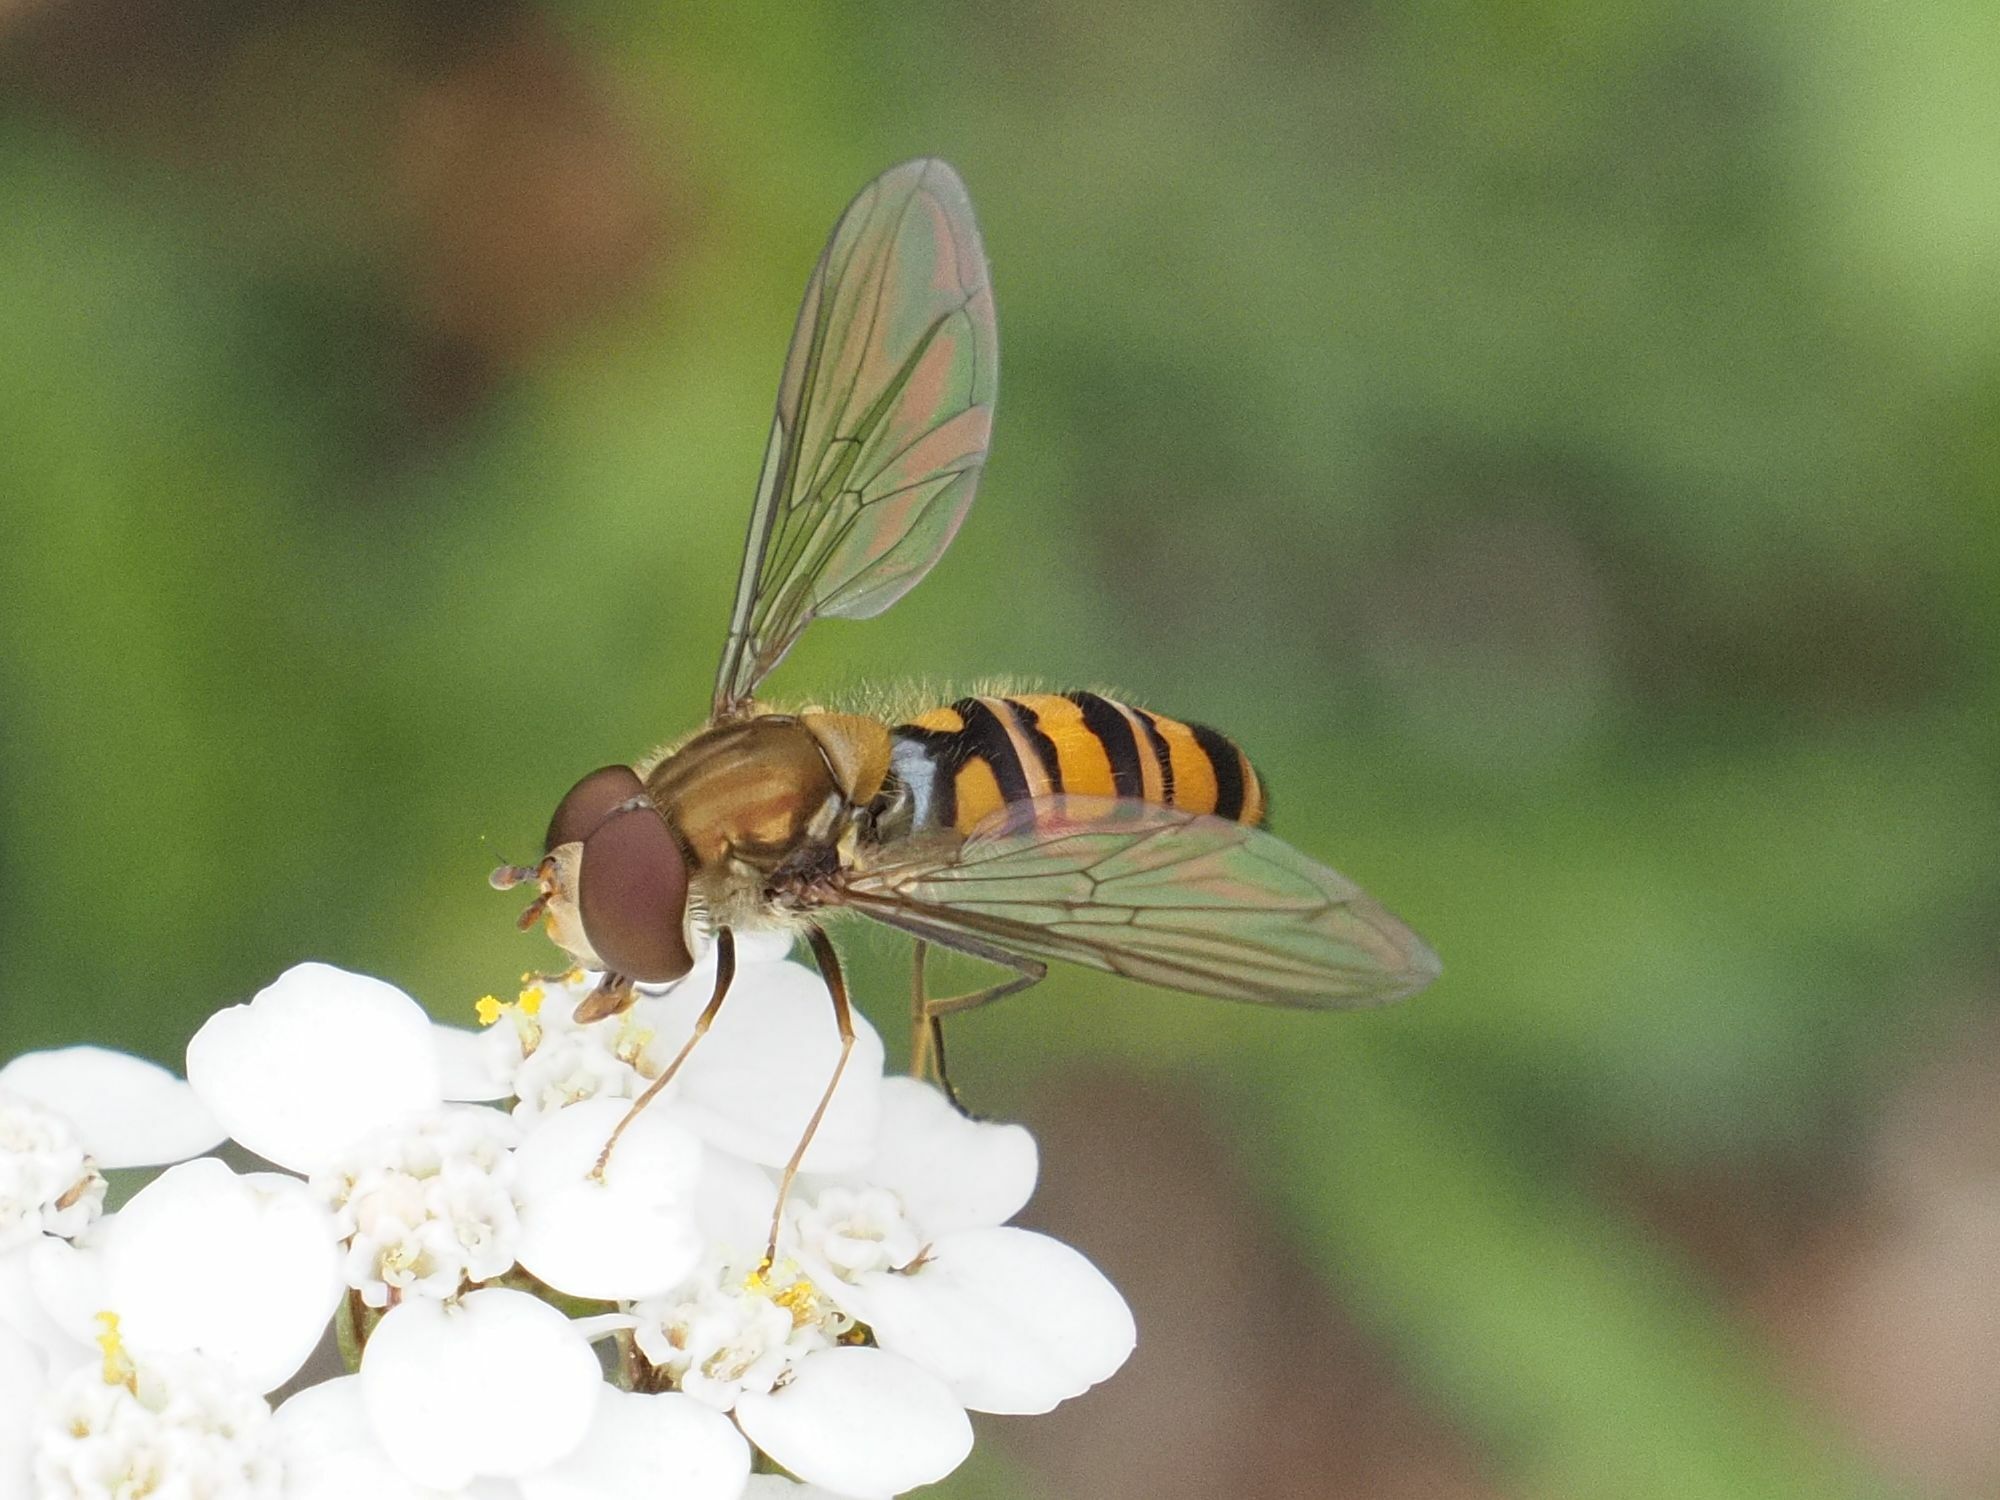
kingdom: Animalia
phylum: Arthropoda
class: Insecta
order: Diptera
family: Syrphidae
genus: Episyrphus
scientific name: Episyrphus balteatus
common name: Marmalade hoverfly
